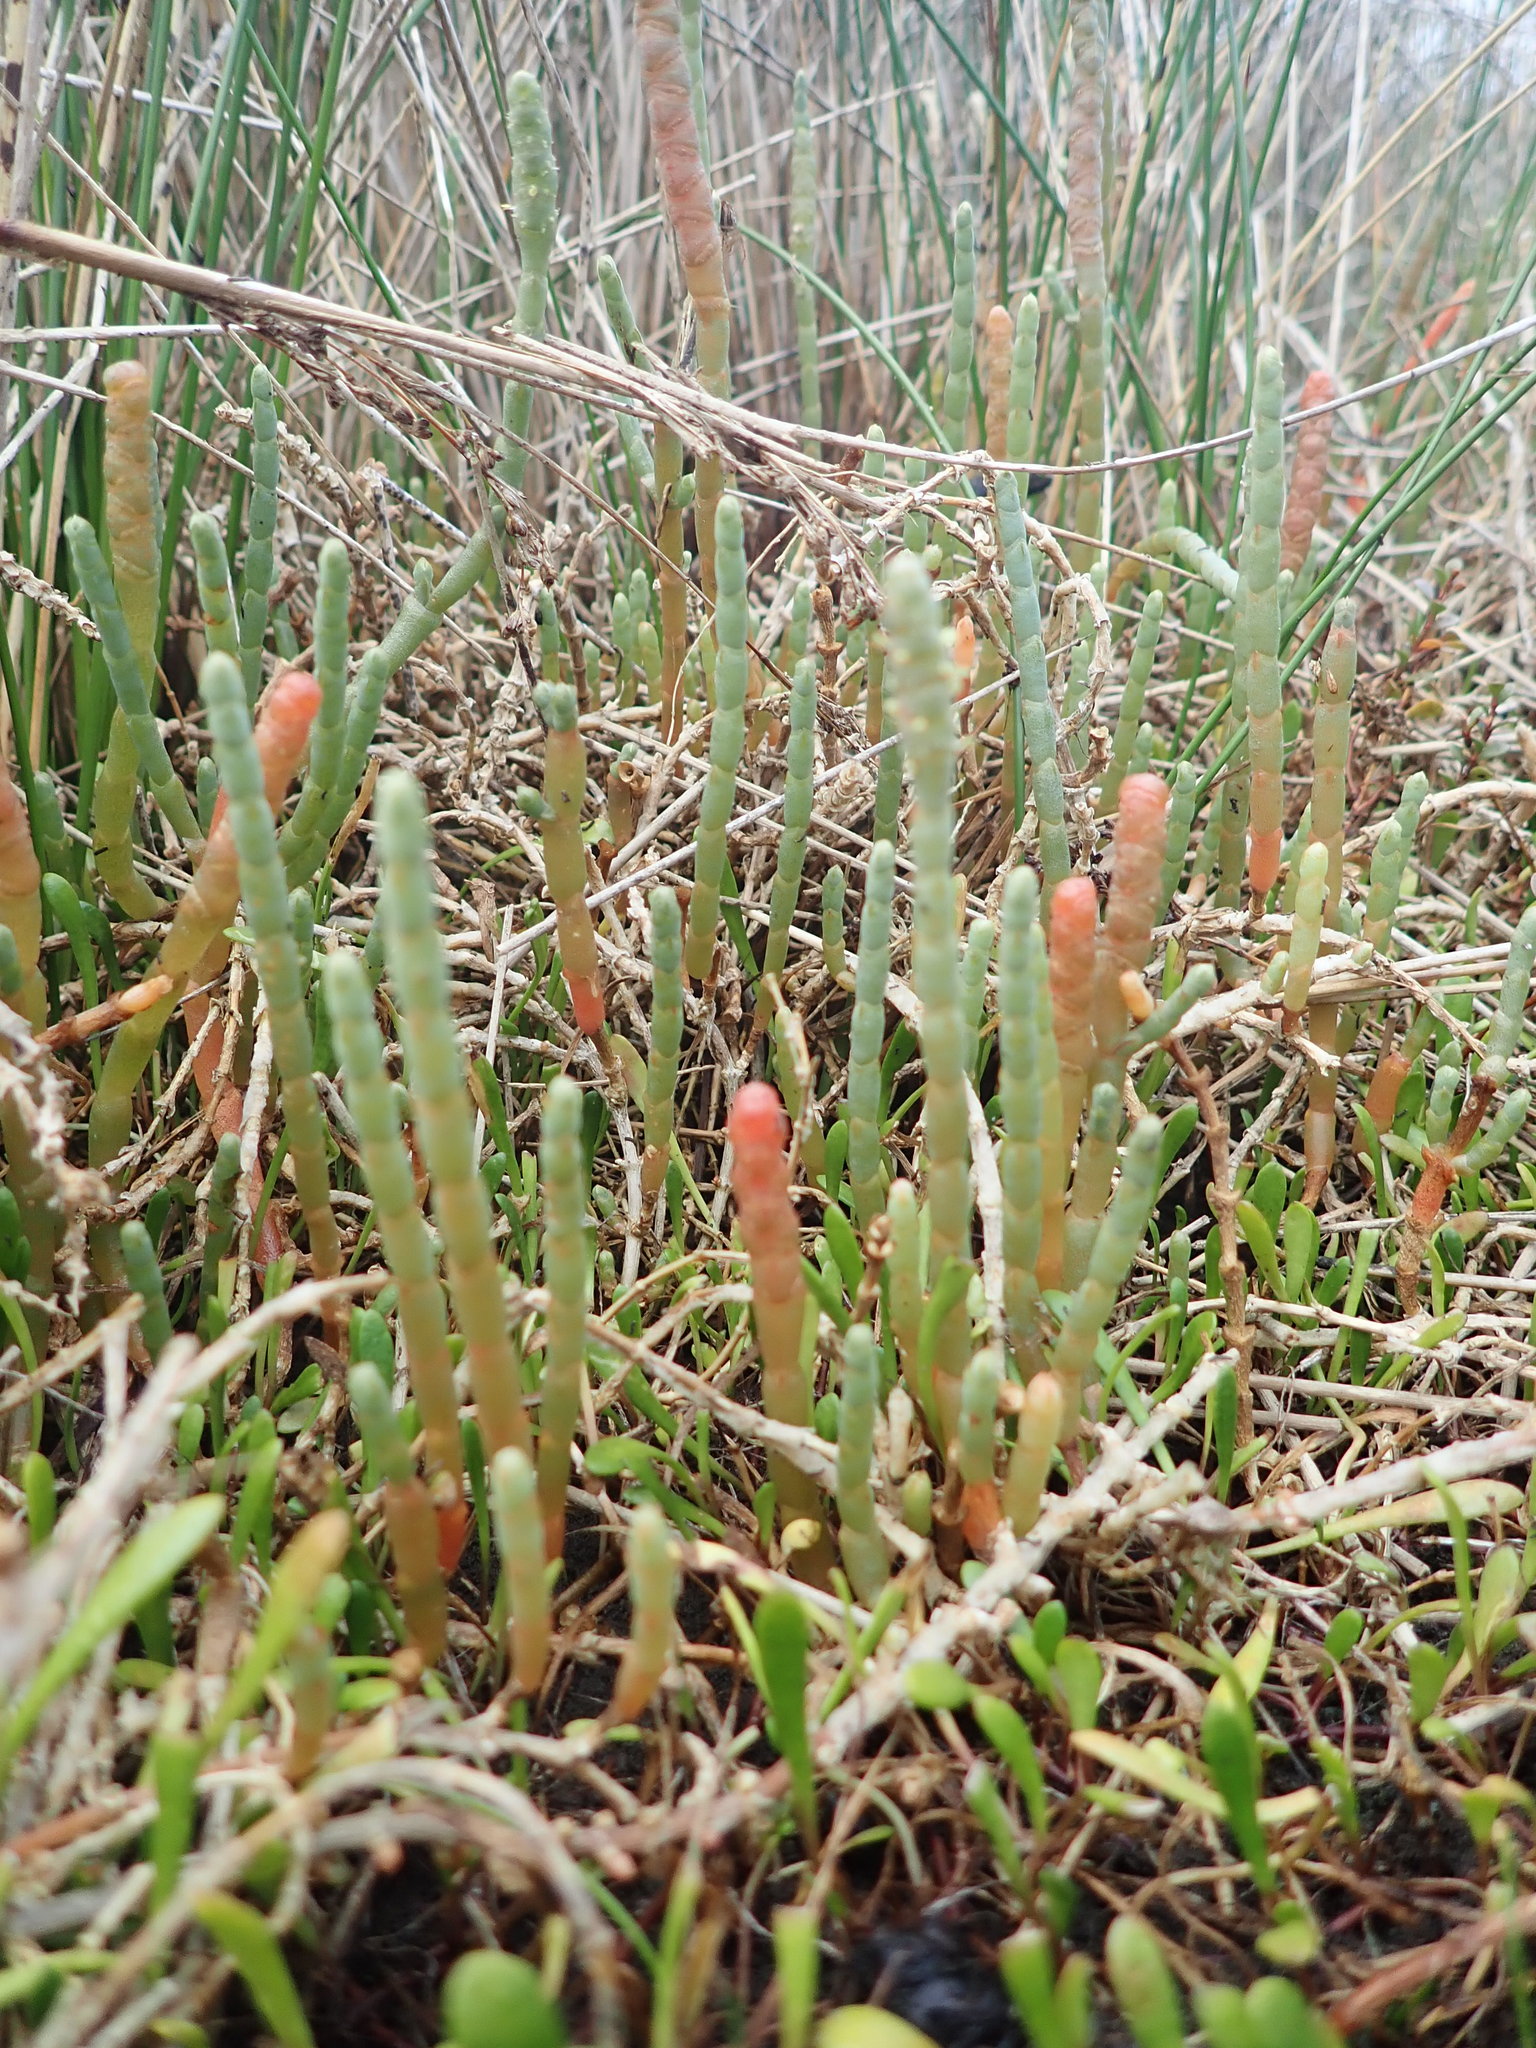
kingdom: Plantae
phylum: Tracheophyta
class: Magnoliopsida
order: Caryophyllales
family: Amaranthaceae
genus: Salicornia
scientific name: Salicornia quinqueflora
